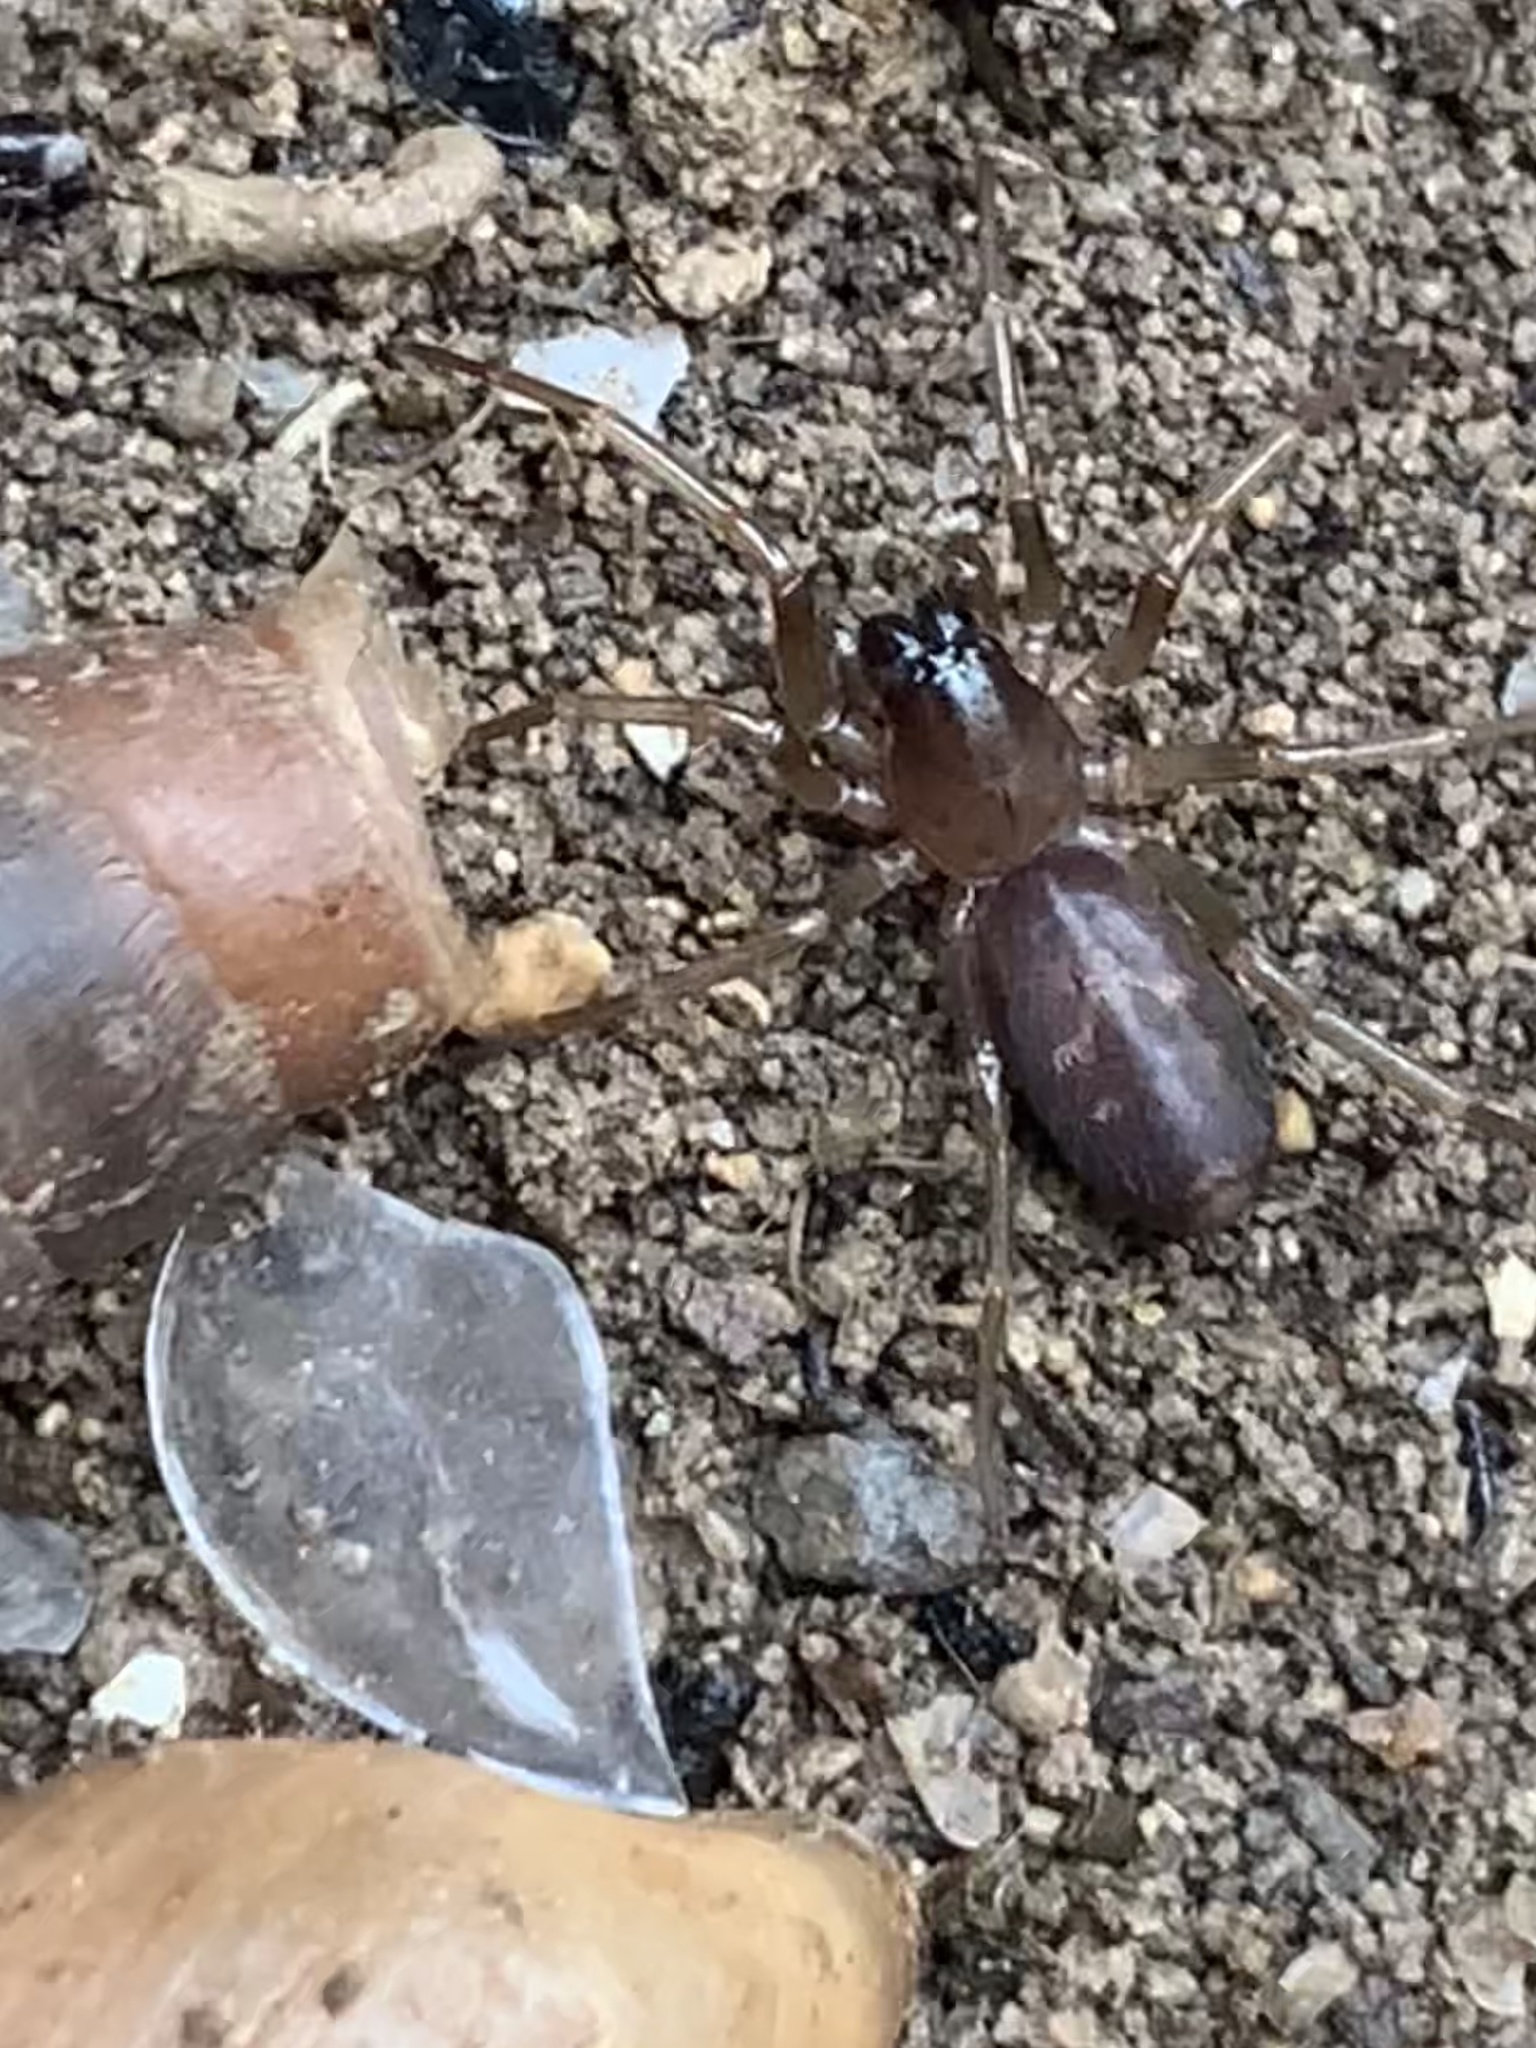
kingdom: Animalia
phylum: Arthropoda
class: Arachnida
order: Araneae
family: Corinnidae
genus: Falconina
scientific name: Falconina gracilis
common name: Antmimic spider
